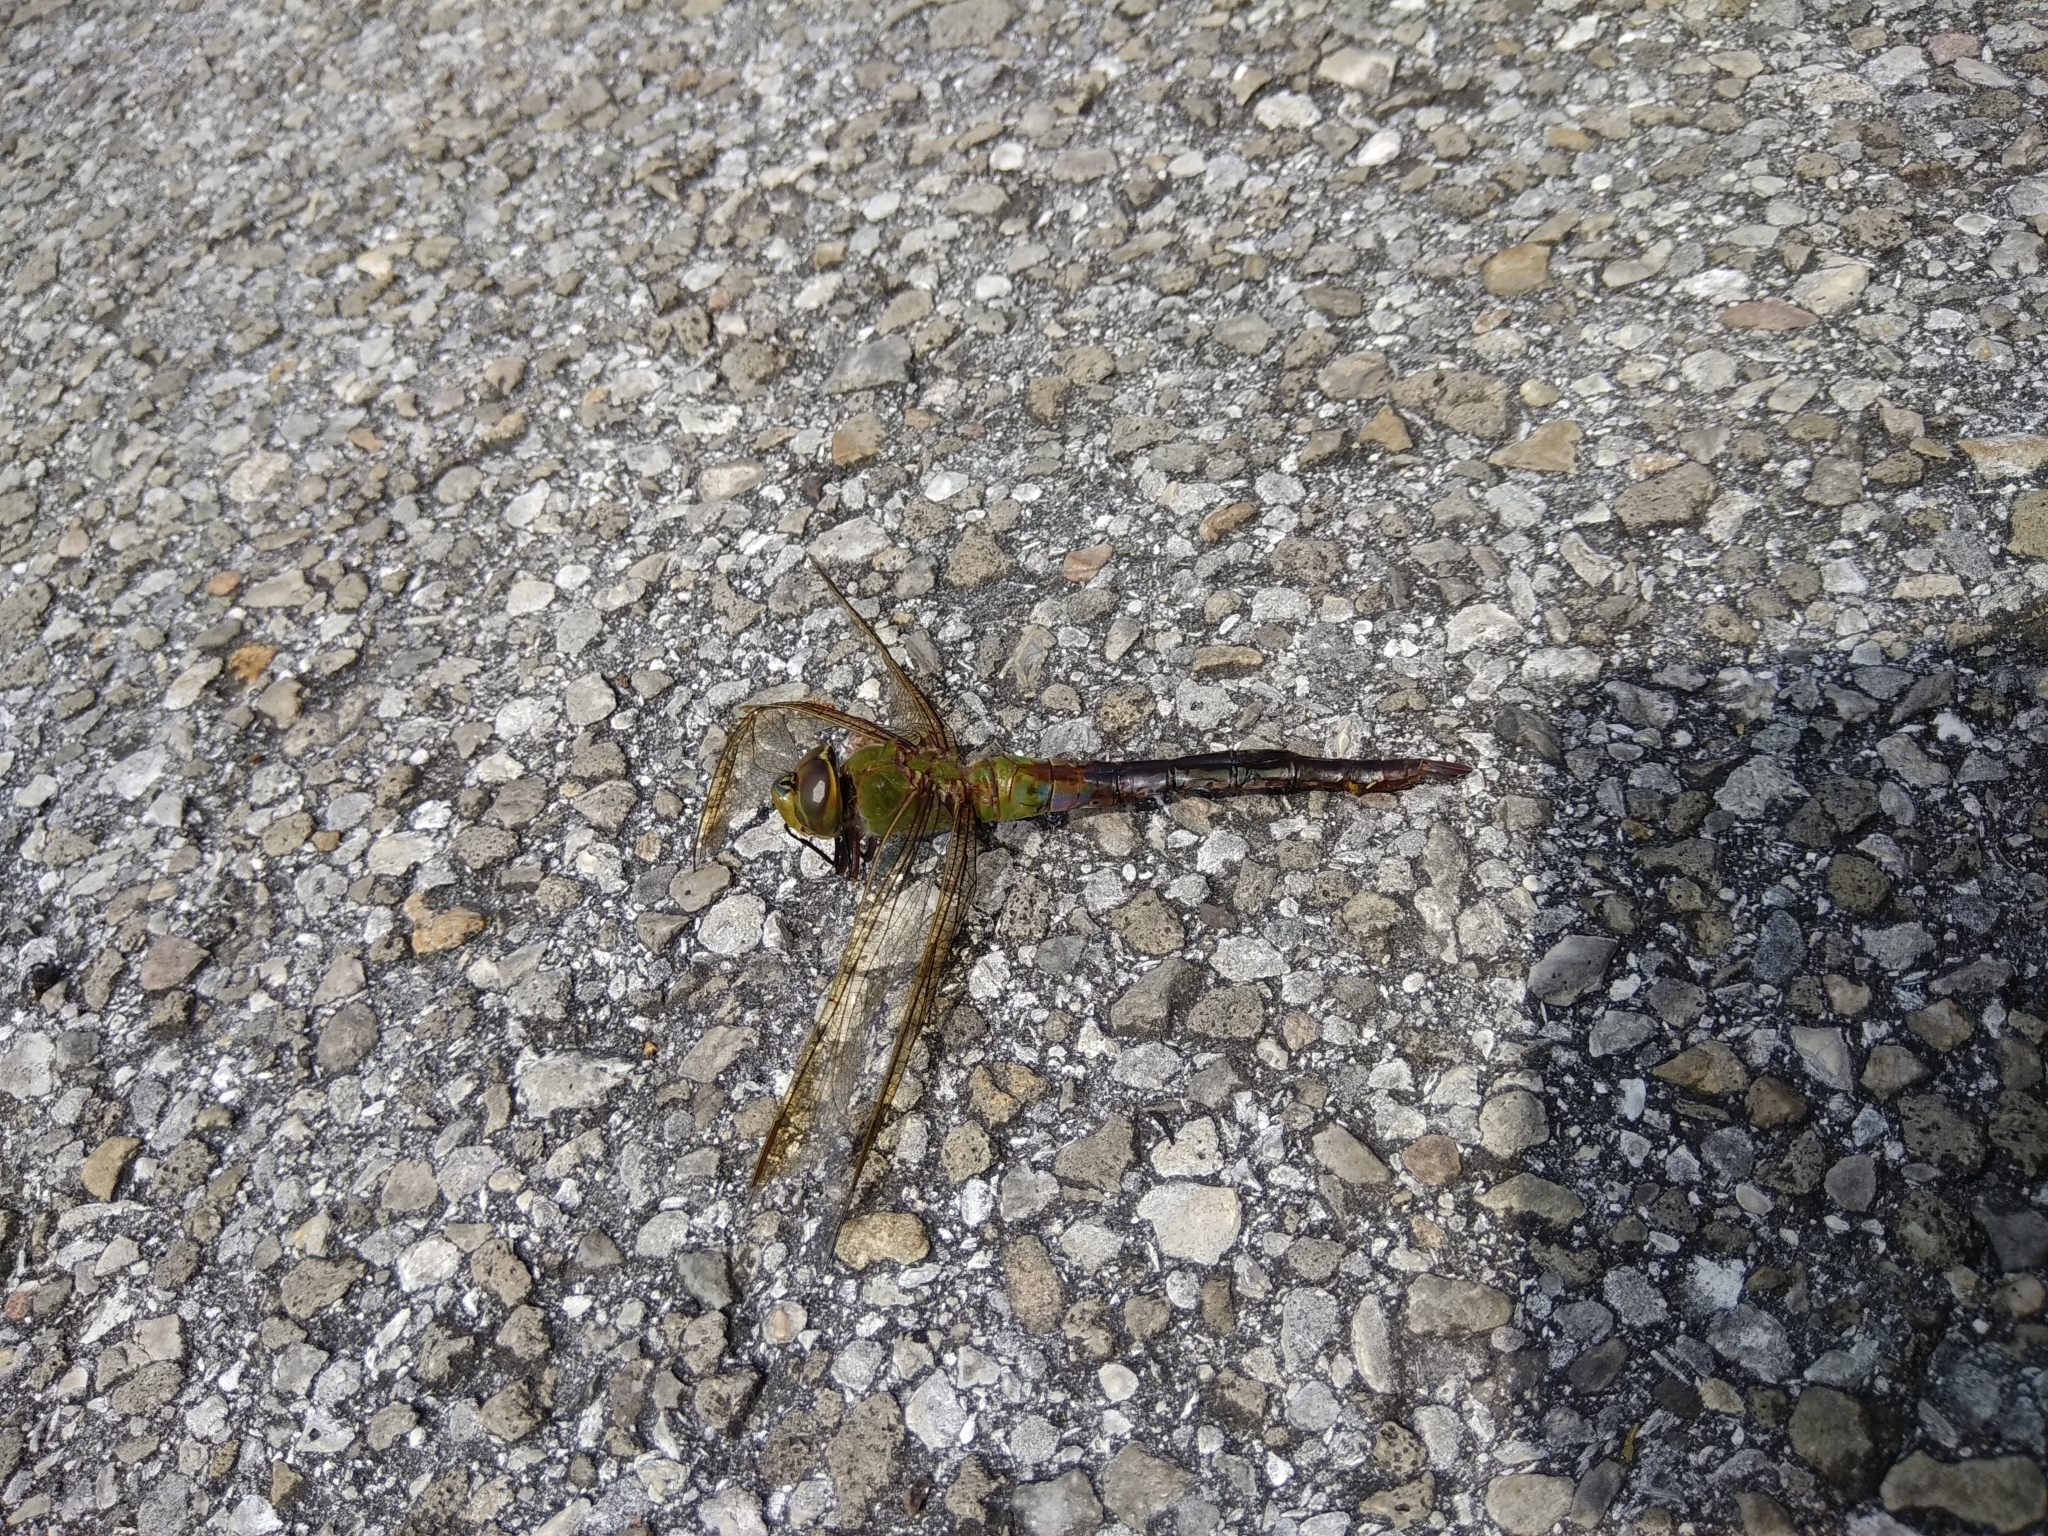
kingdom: Animalia
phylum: Arthropoda
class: Insecta
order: Odonata
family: Aeshnidae
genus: Anax
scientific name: Anax junius
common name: Common green darner
